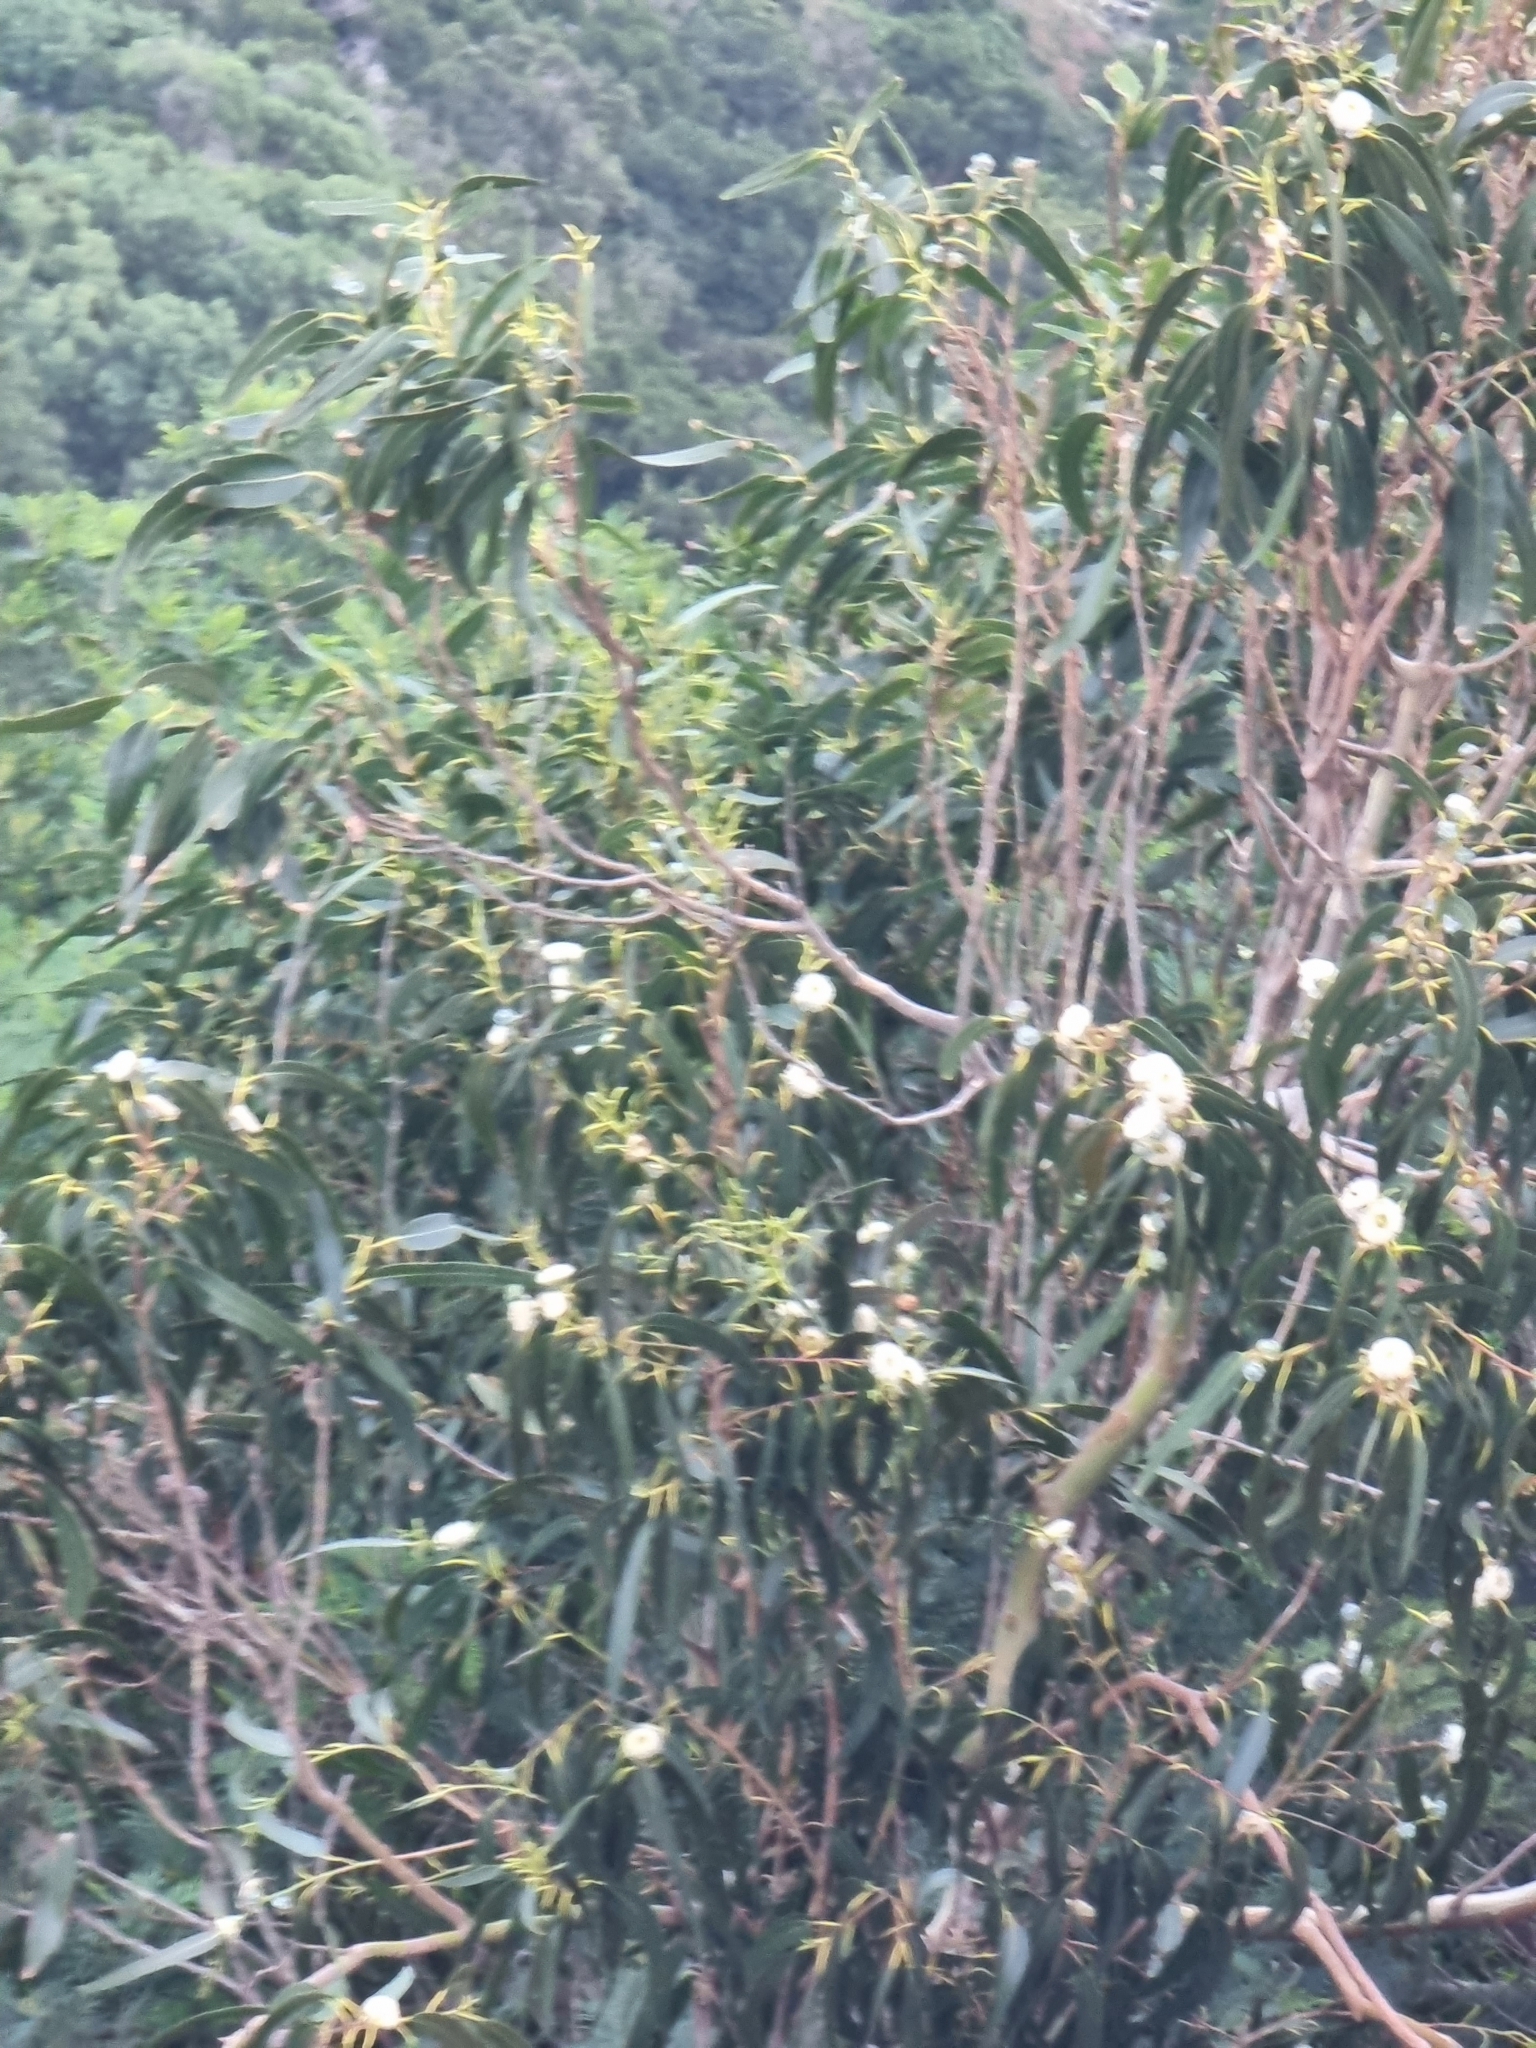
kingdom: Plantae
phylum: Tracheophyta
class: Magnoliopsida
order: Myrtales
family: Myrtaceae
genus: Eucalyptus
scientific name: Eucalyptus globulus
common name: Southern blue-gum
